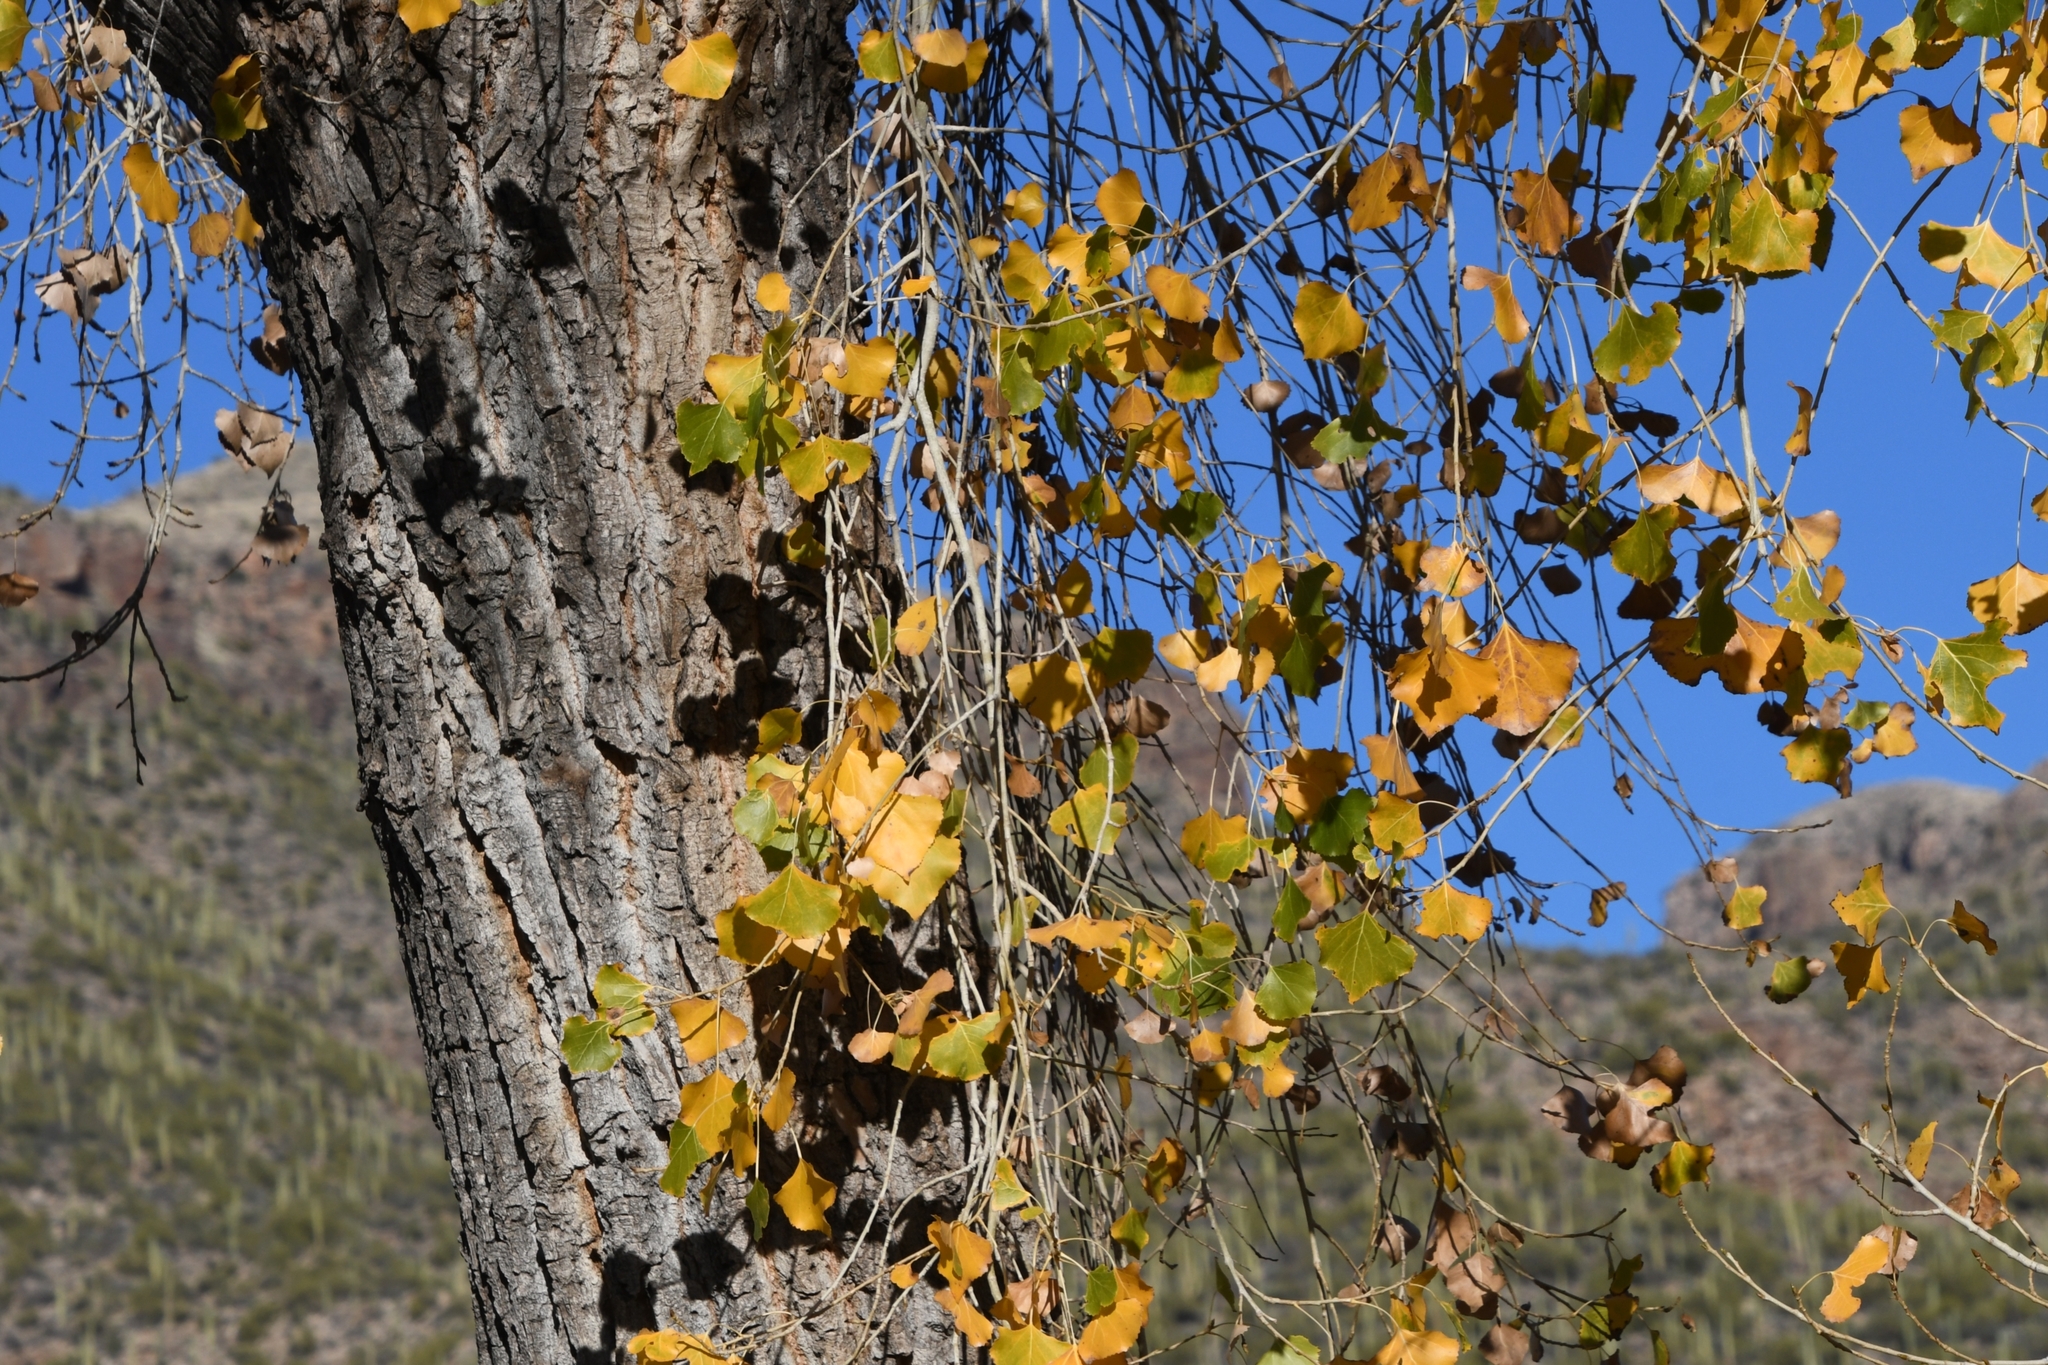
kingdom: Plantae
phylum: Tracheophyta
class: Magnoliopsida
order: Malpighiales
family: Salicaceae
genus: Populus
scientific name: Populus fremontii
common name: Fremont's cottonwood
